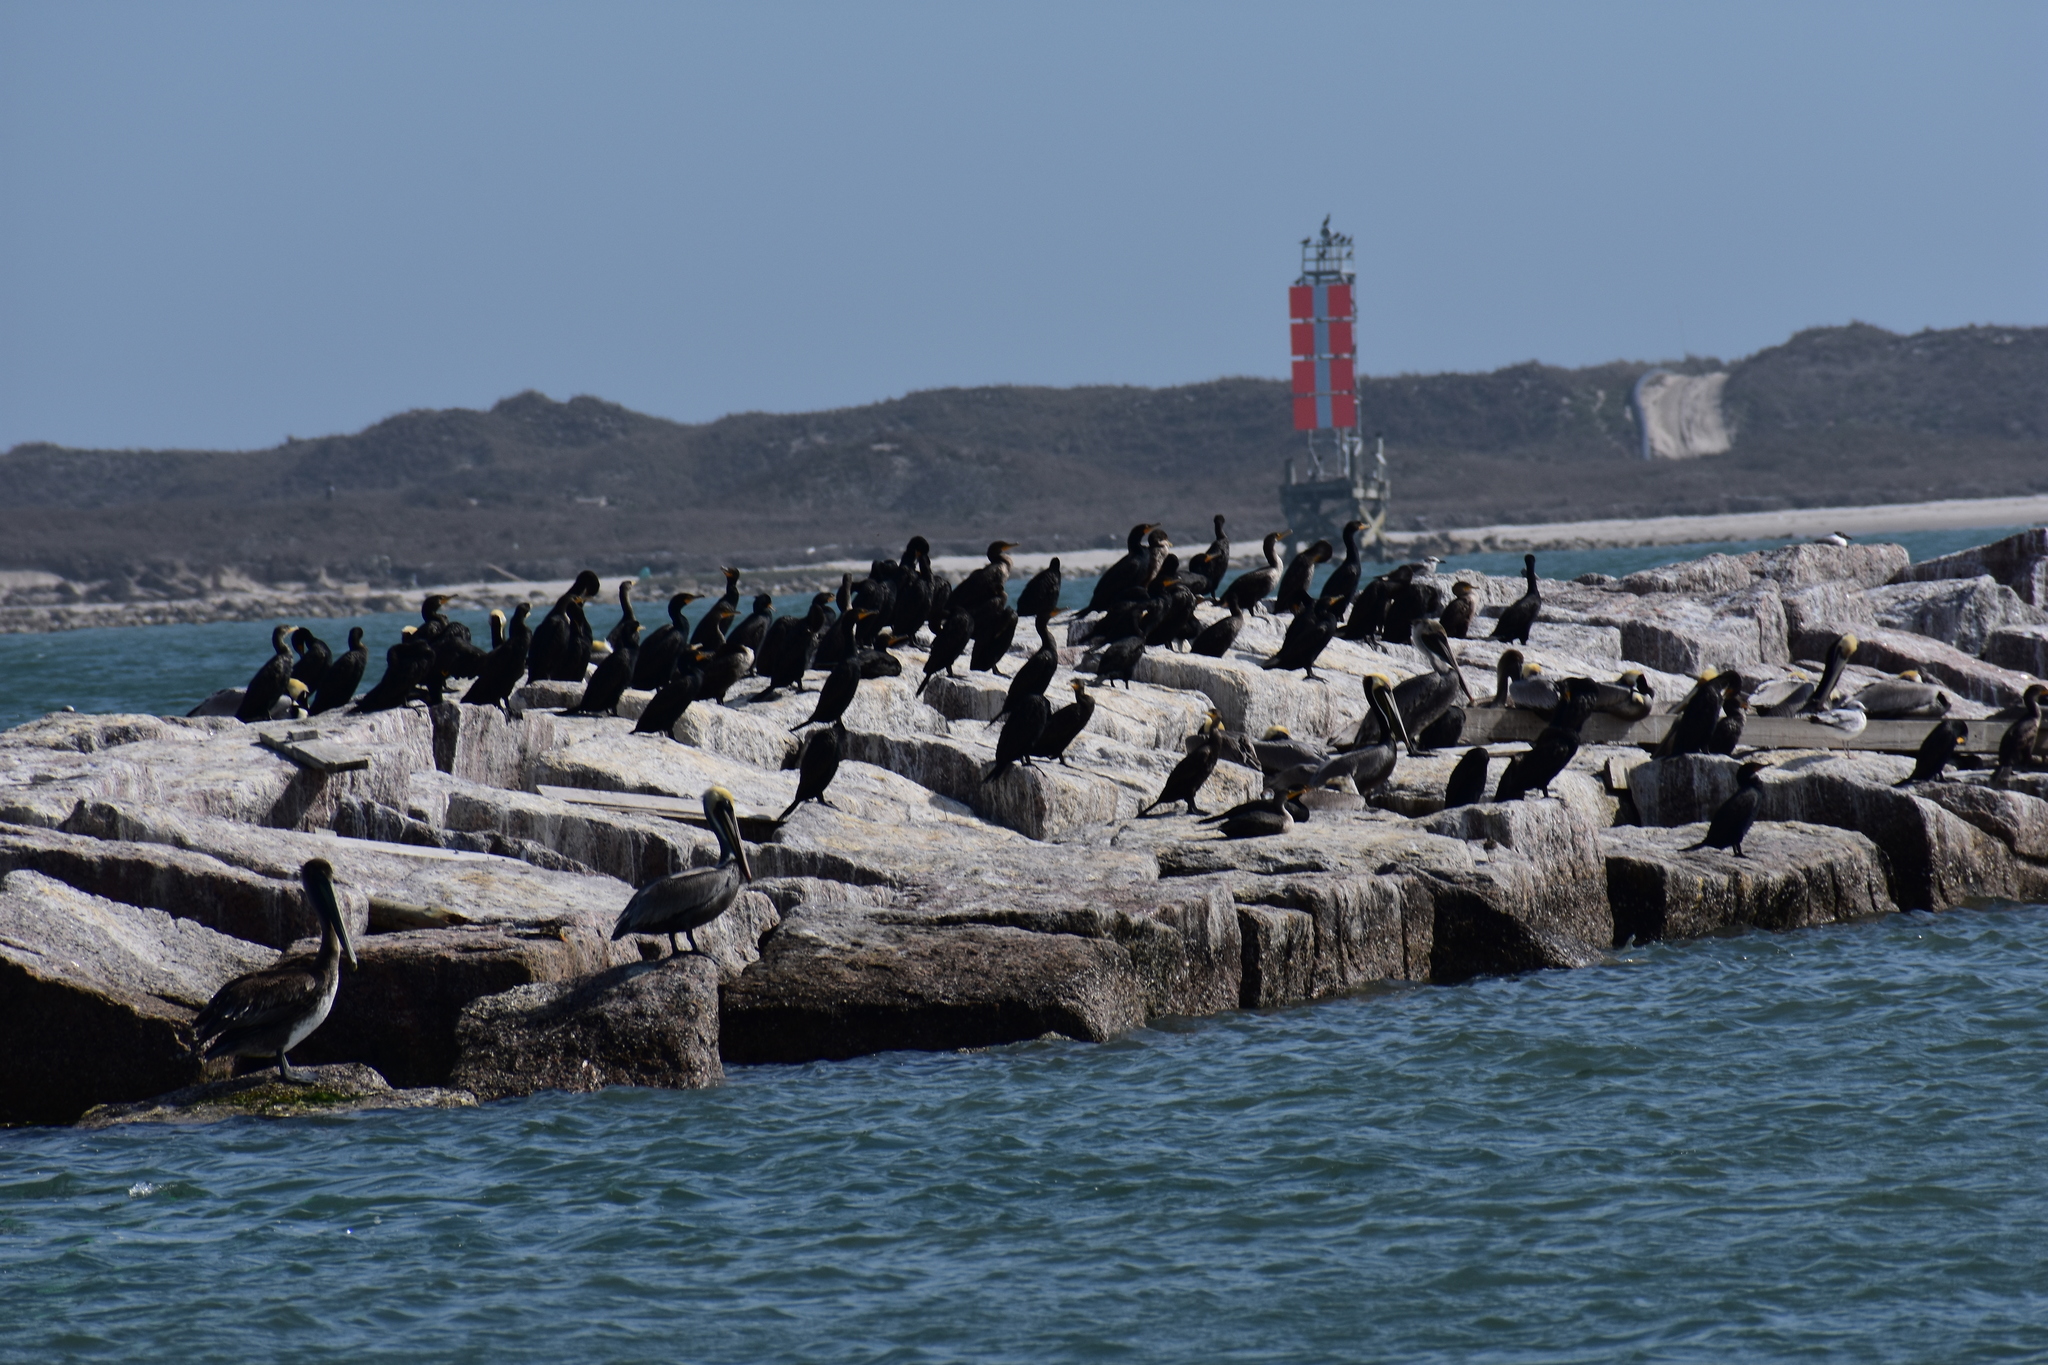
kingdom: Animalia
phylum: Chordata
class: Aves
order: Charadriiformes
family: Laridae
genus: Larus
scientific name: Larus delawarensis
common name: Ring-billed gull
